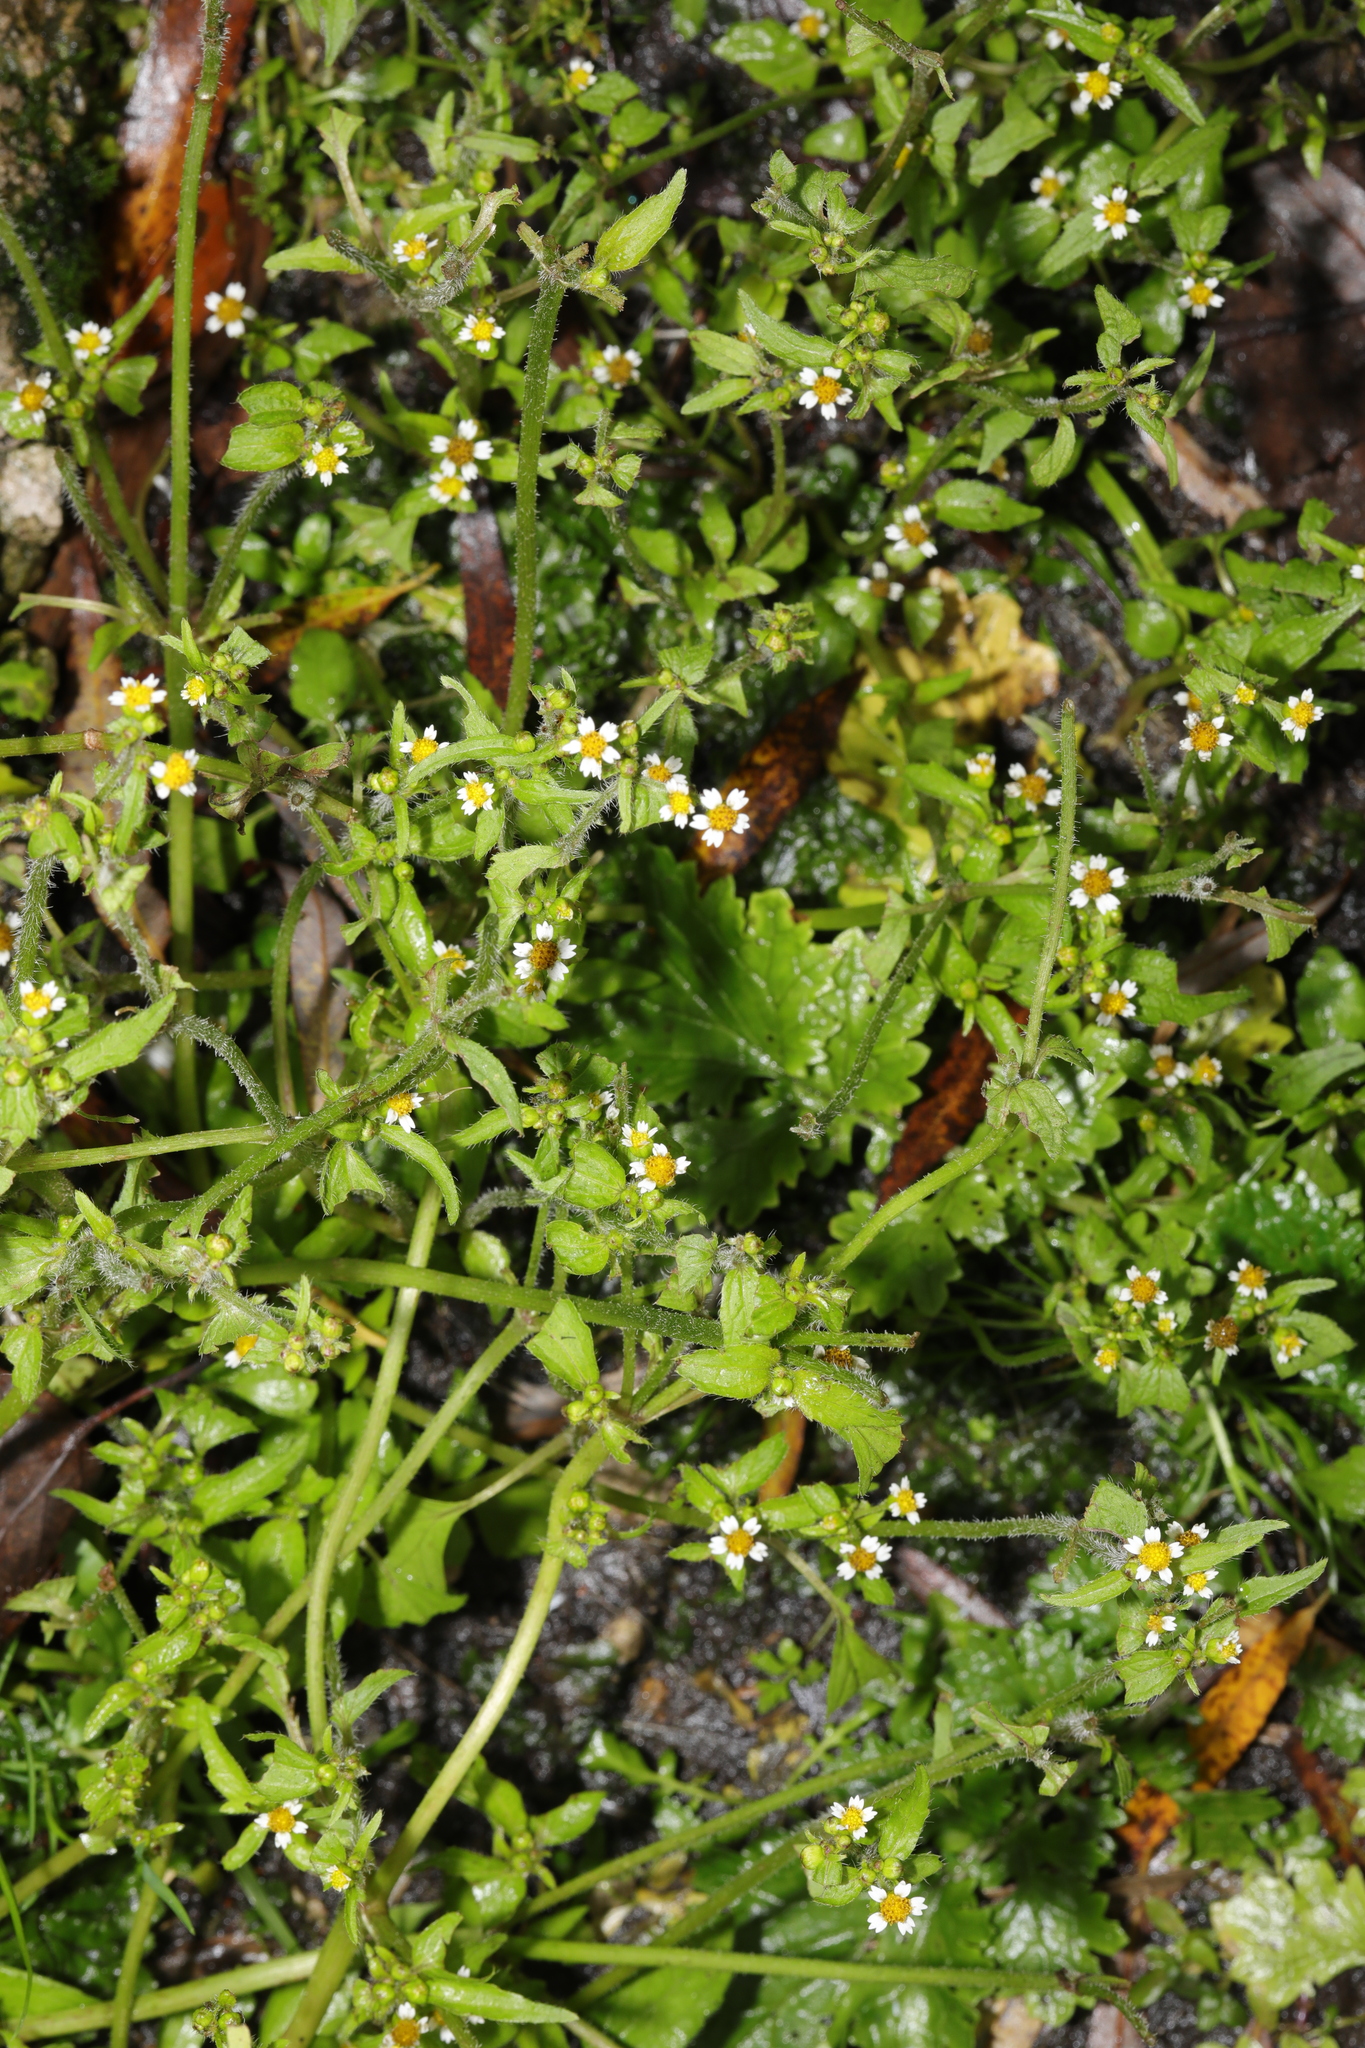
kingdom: Plantae
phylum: Tracheophyta
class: Magnoliopsida
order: Asterales
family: Asteraceae
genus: Galinsoga
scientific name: Galinsoga quadriradiata
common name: Shaggy soldier
